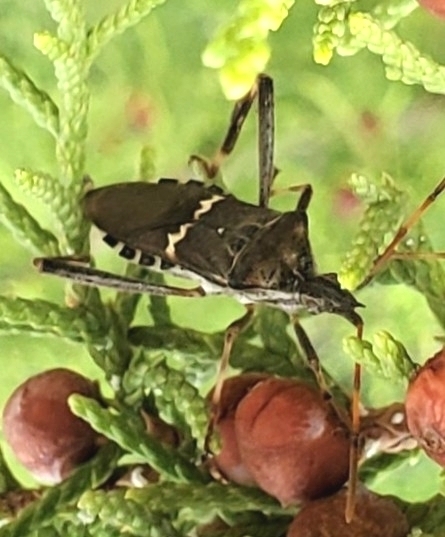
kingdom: Animalia
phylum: Arthropoda
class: Insecta
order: Hemiptera
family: Coreidae
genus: Leptoglossus
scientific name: Leptoglossus clypealis
